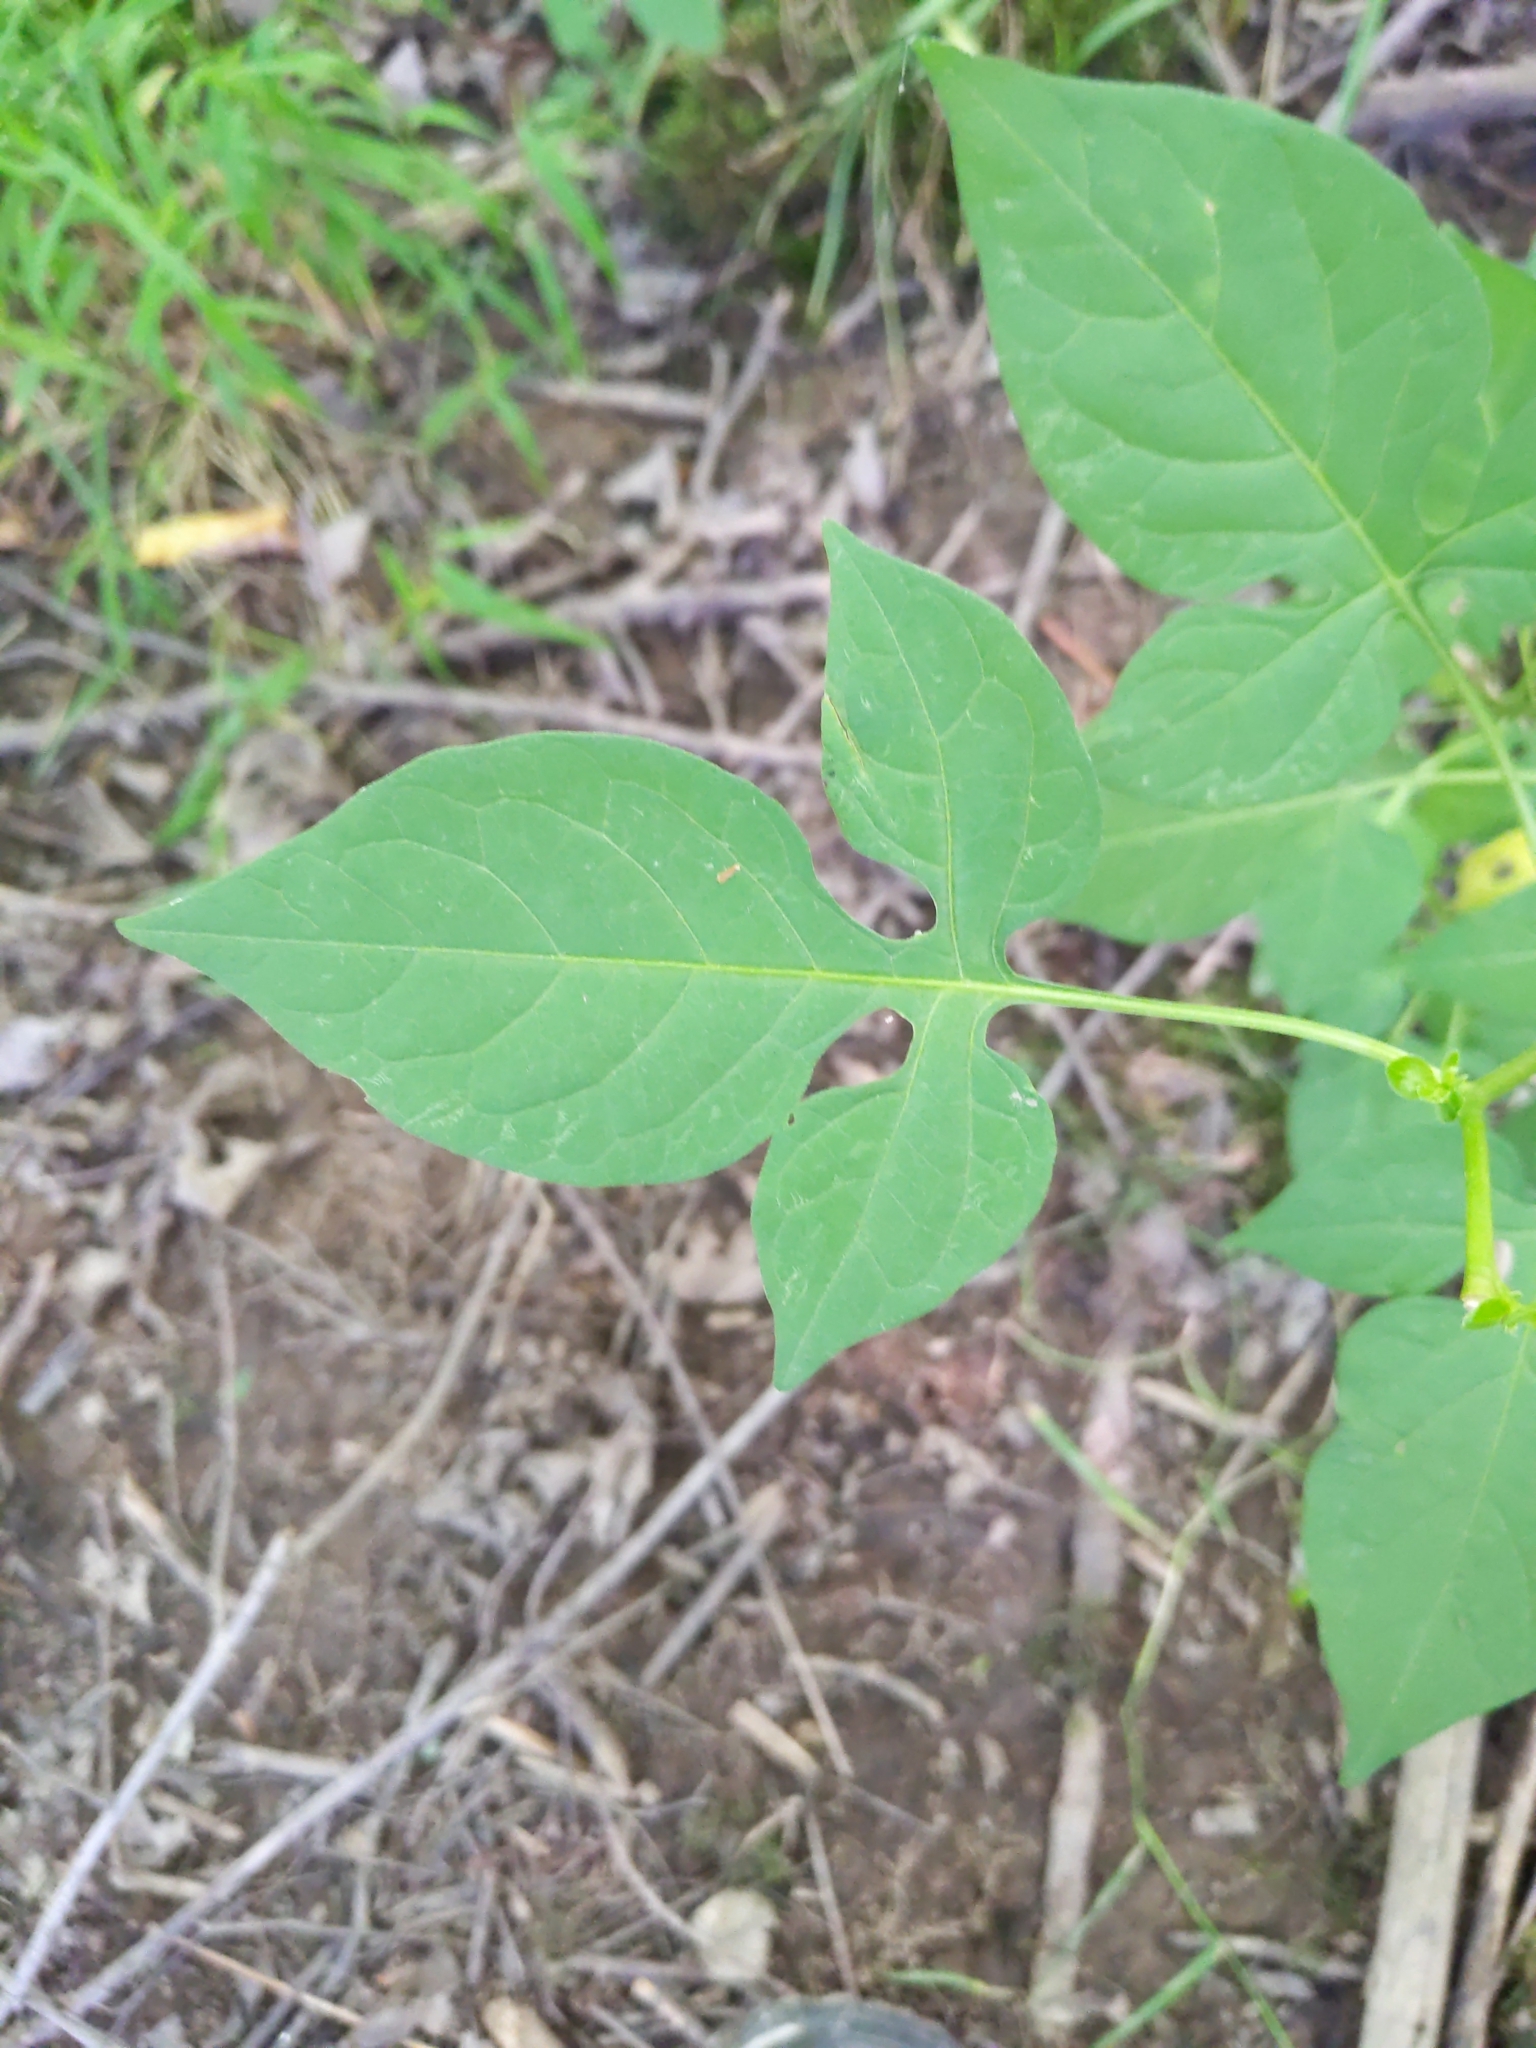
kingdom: Plantae
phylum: Tracheophyta
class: Magnoliopsida
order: Solanales
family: Solanaceae
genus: Solanum
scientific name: Solanum dulcamara
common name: Climbing nightshade
